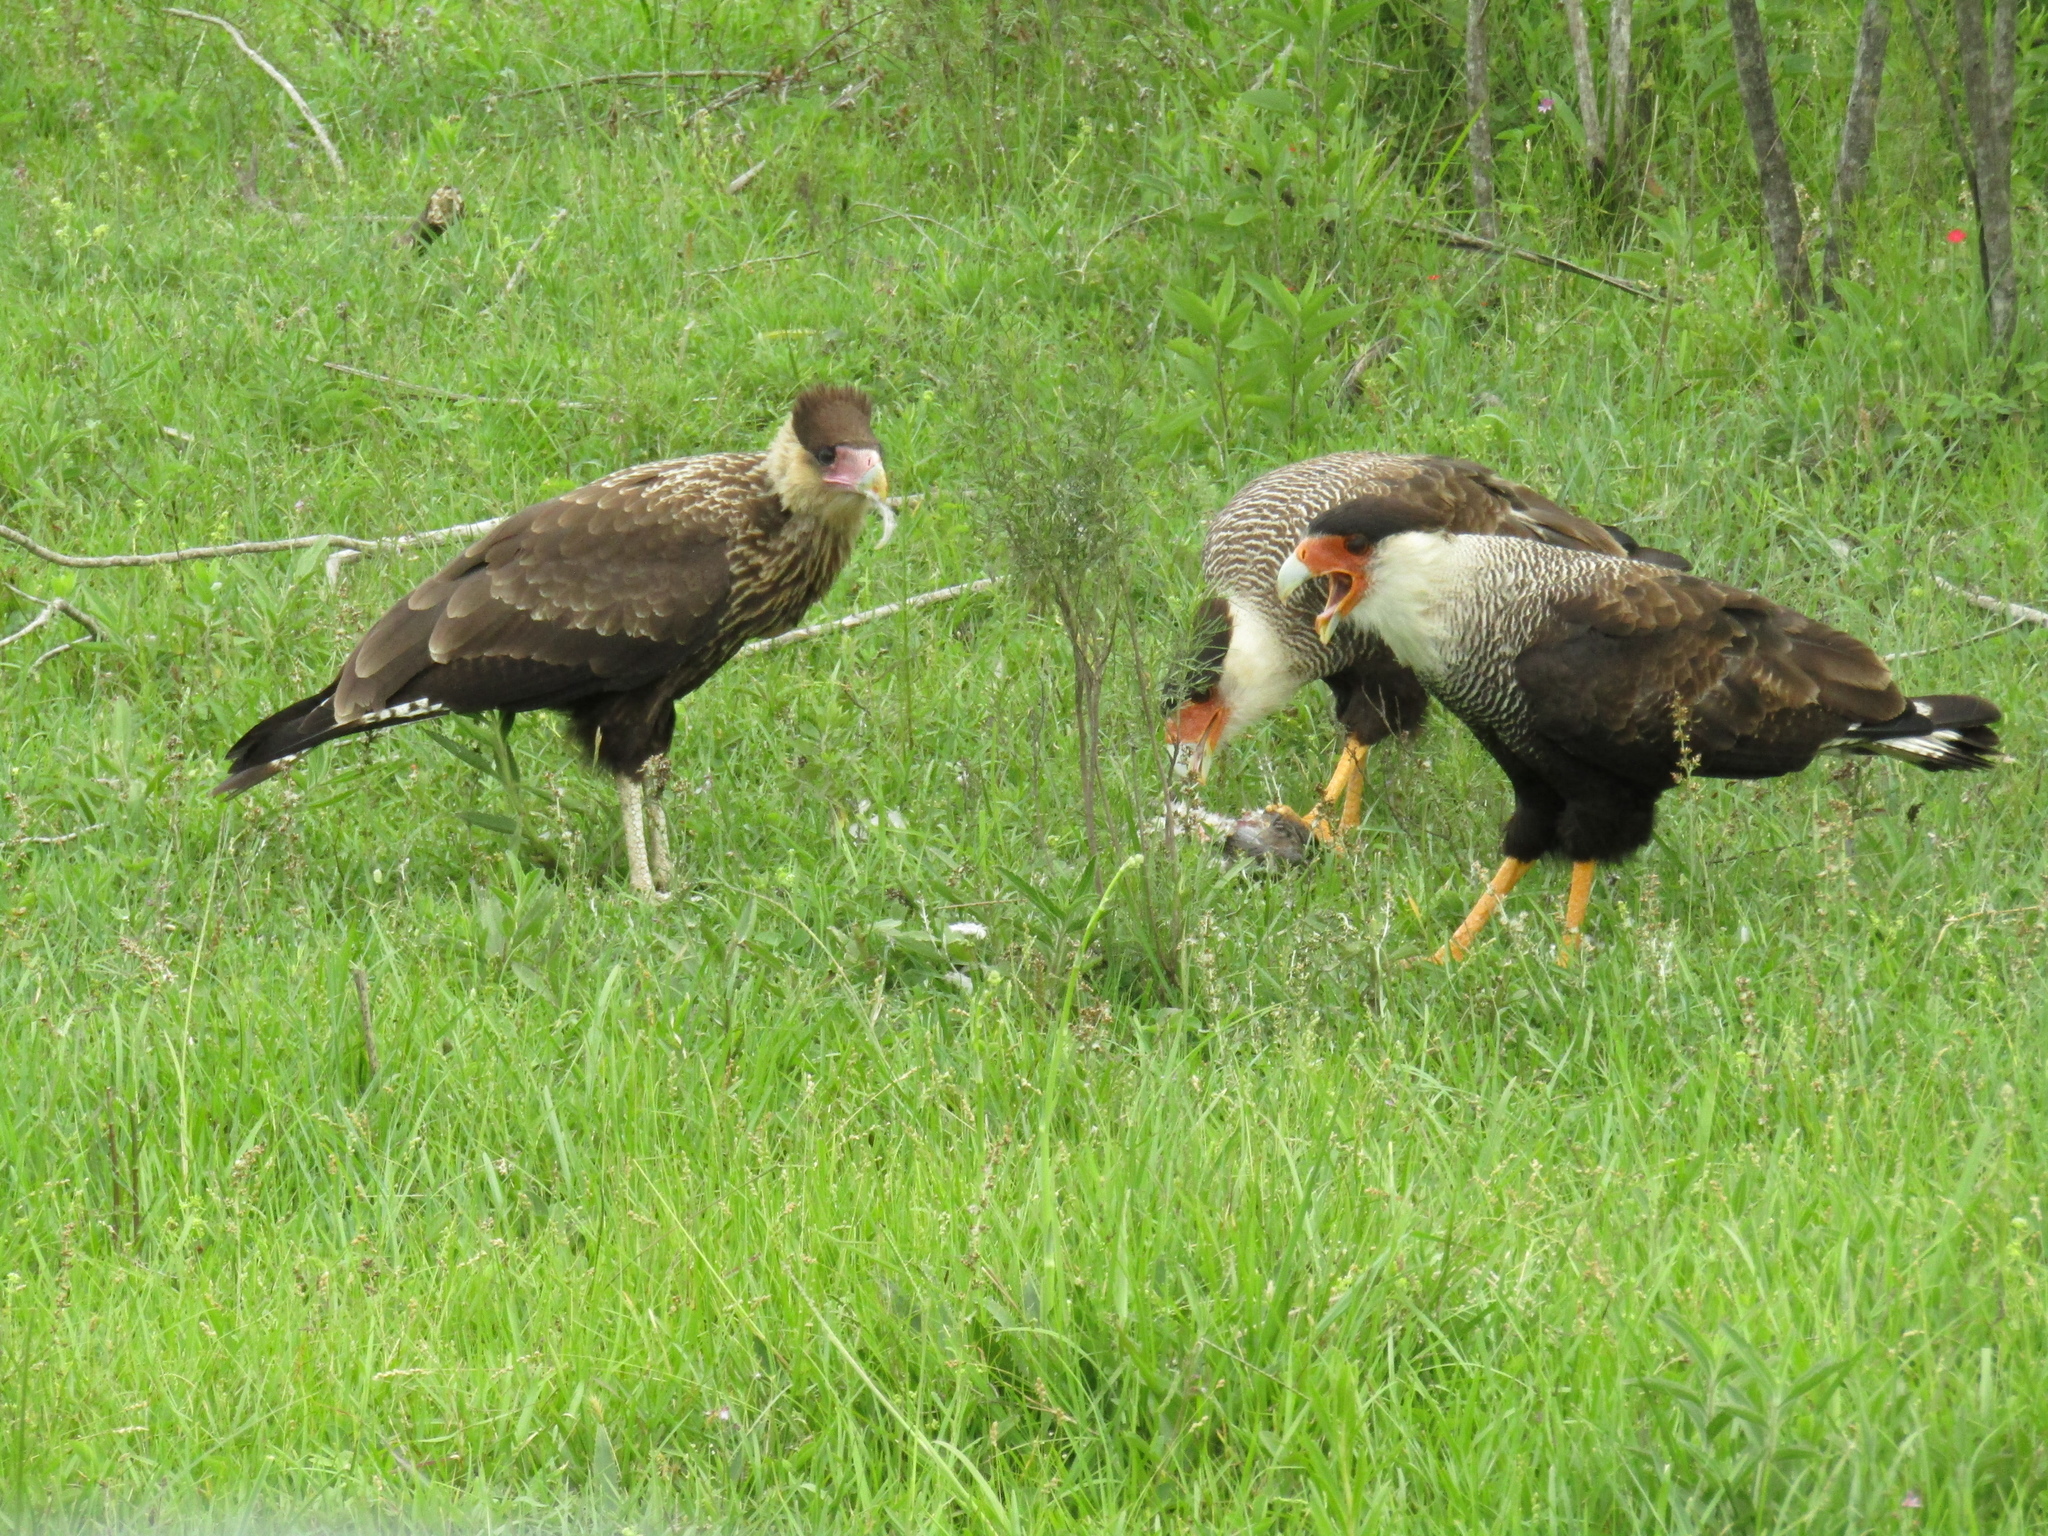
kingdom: Animalia
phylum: Chordata
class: Aves
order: Falconiformes
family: Falconidae
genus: Caracara
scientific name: Caracara plancus
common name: Southern caracara
